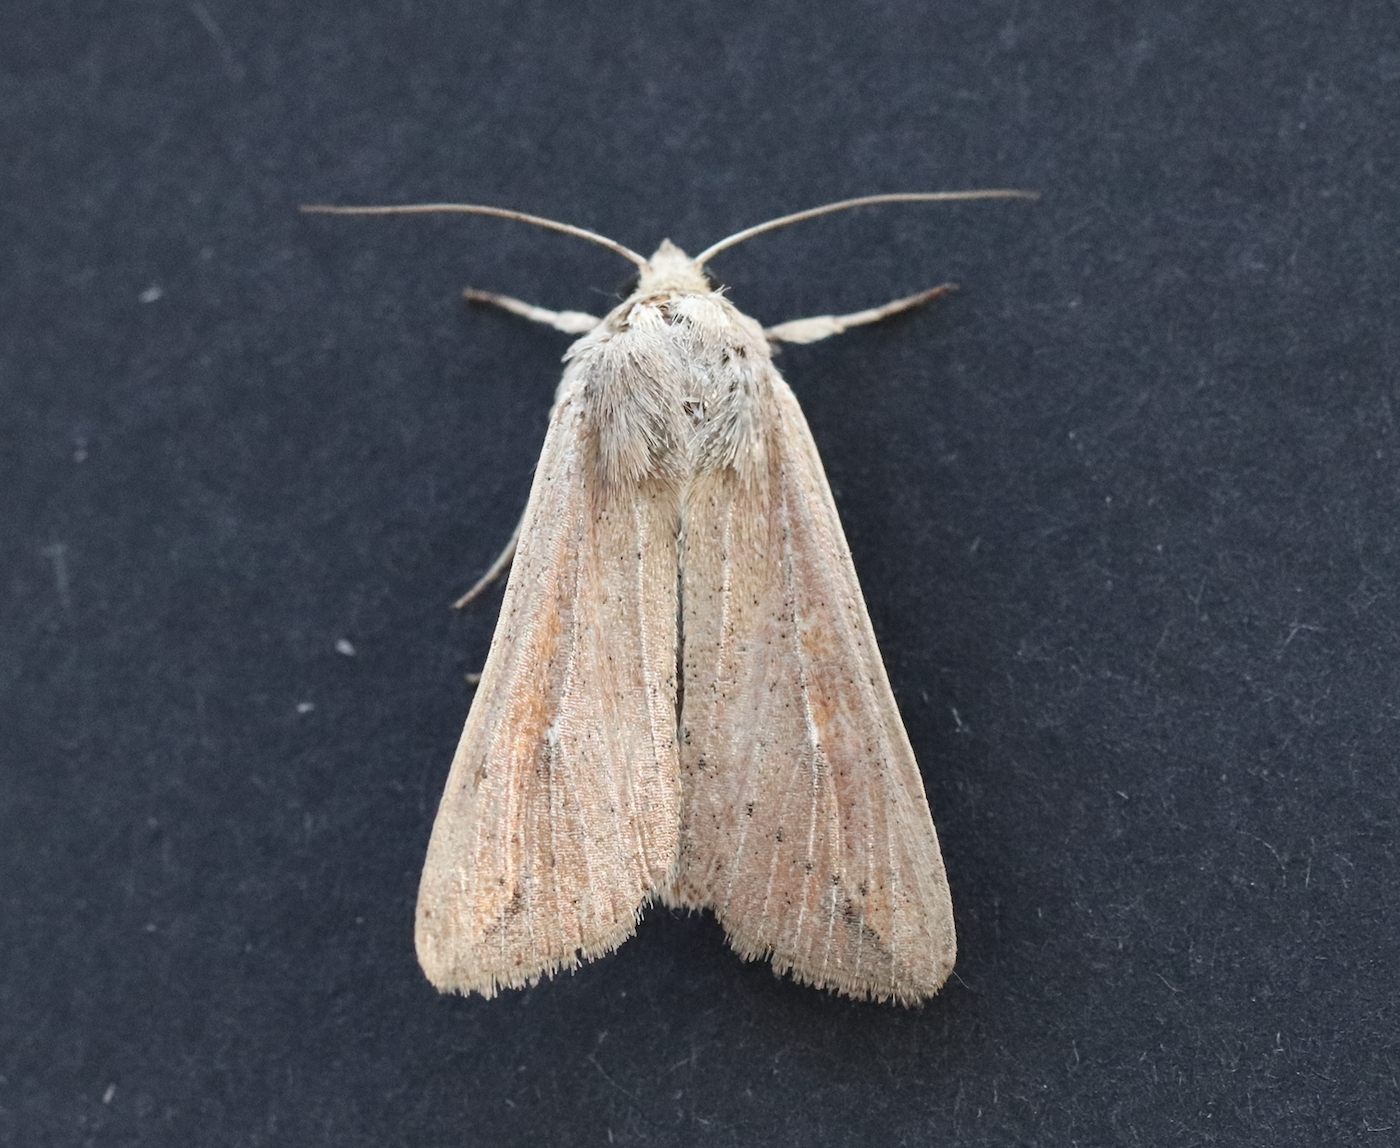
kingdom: Animalia
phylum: Arthropoda
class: Insecta
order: Lepidoptera
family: Noctuidae
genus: Mythimna
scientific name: Mythimna unipuncta
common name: White-speck
